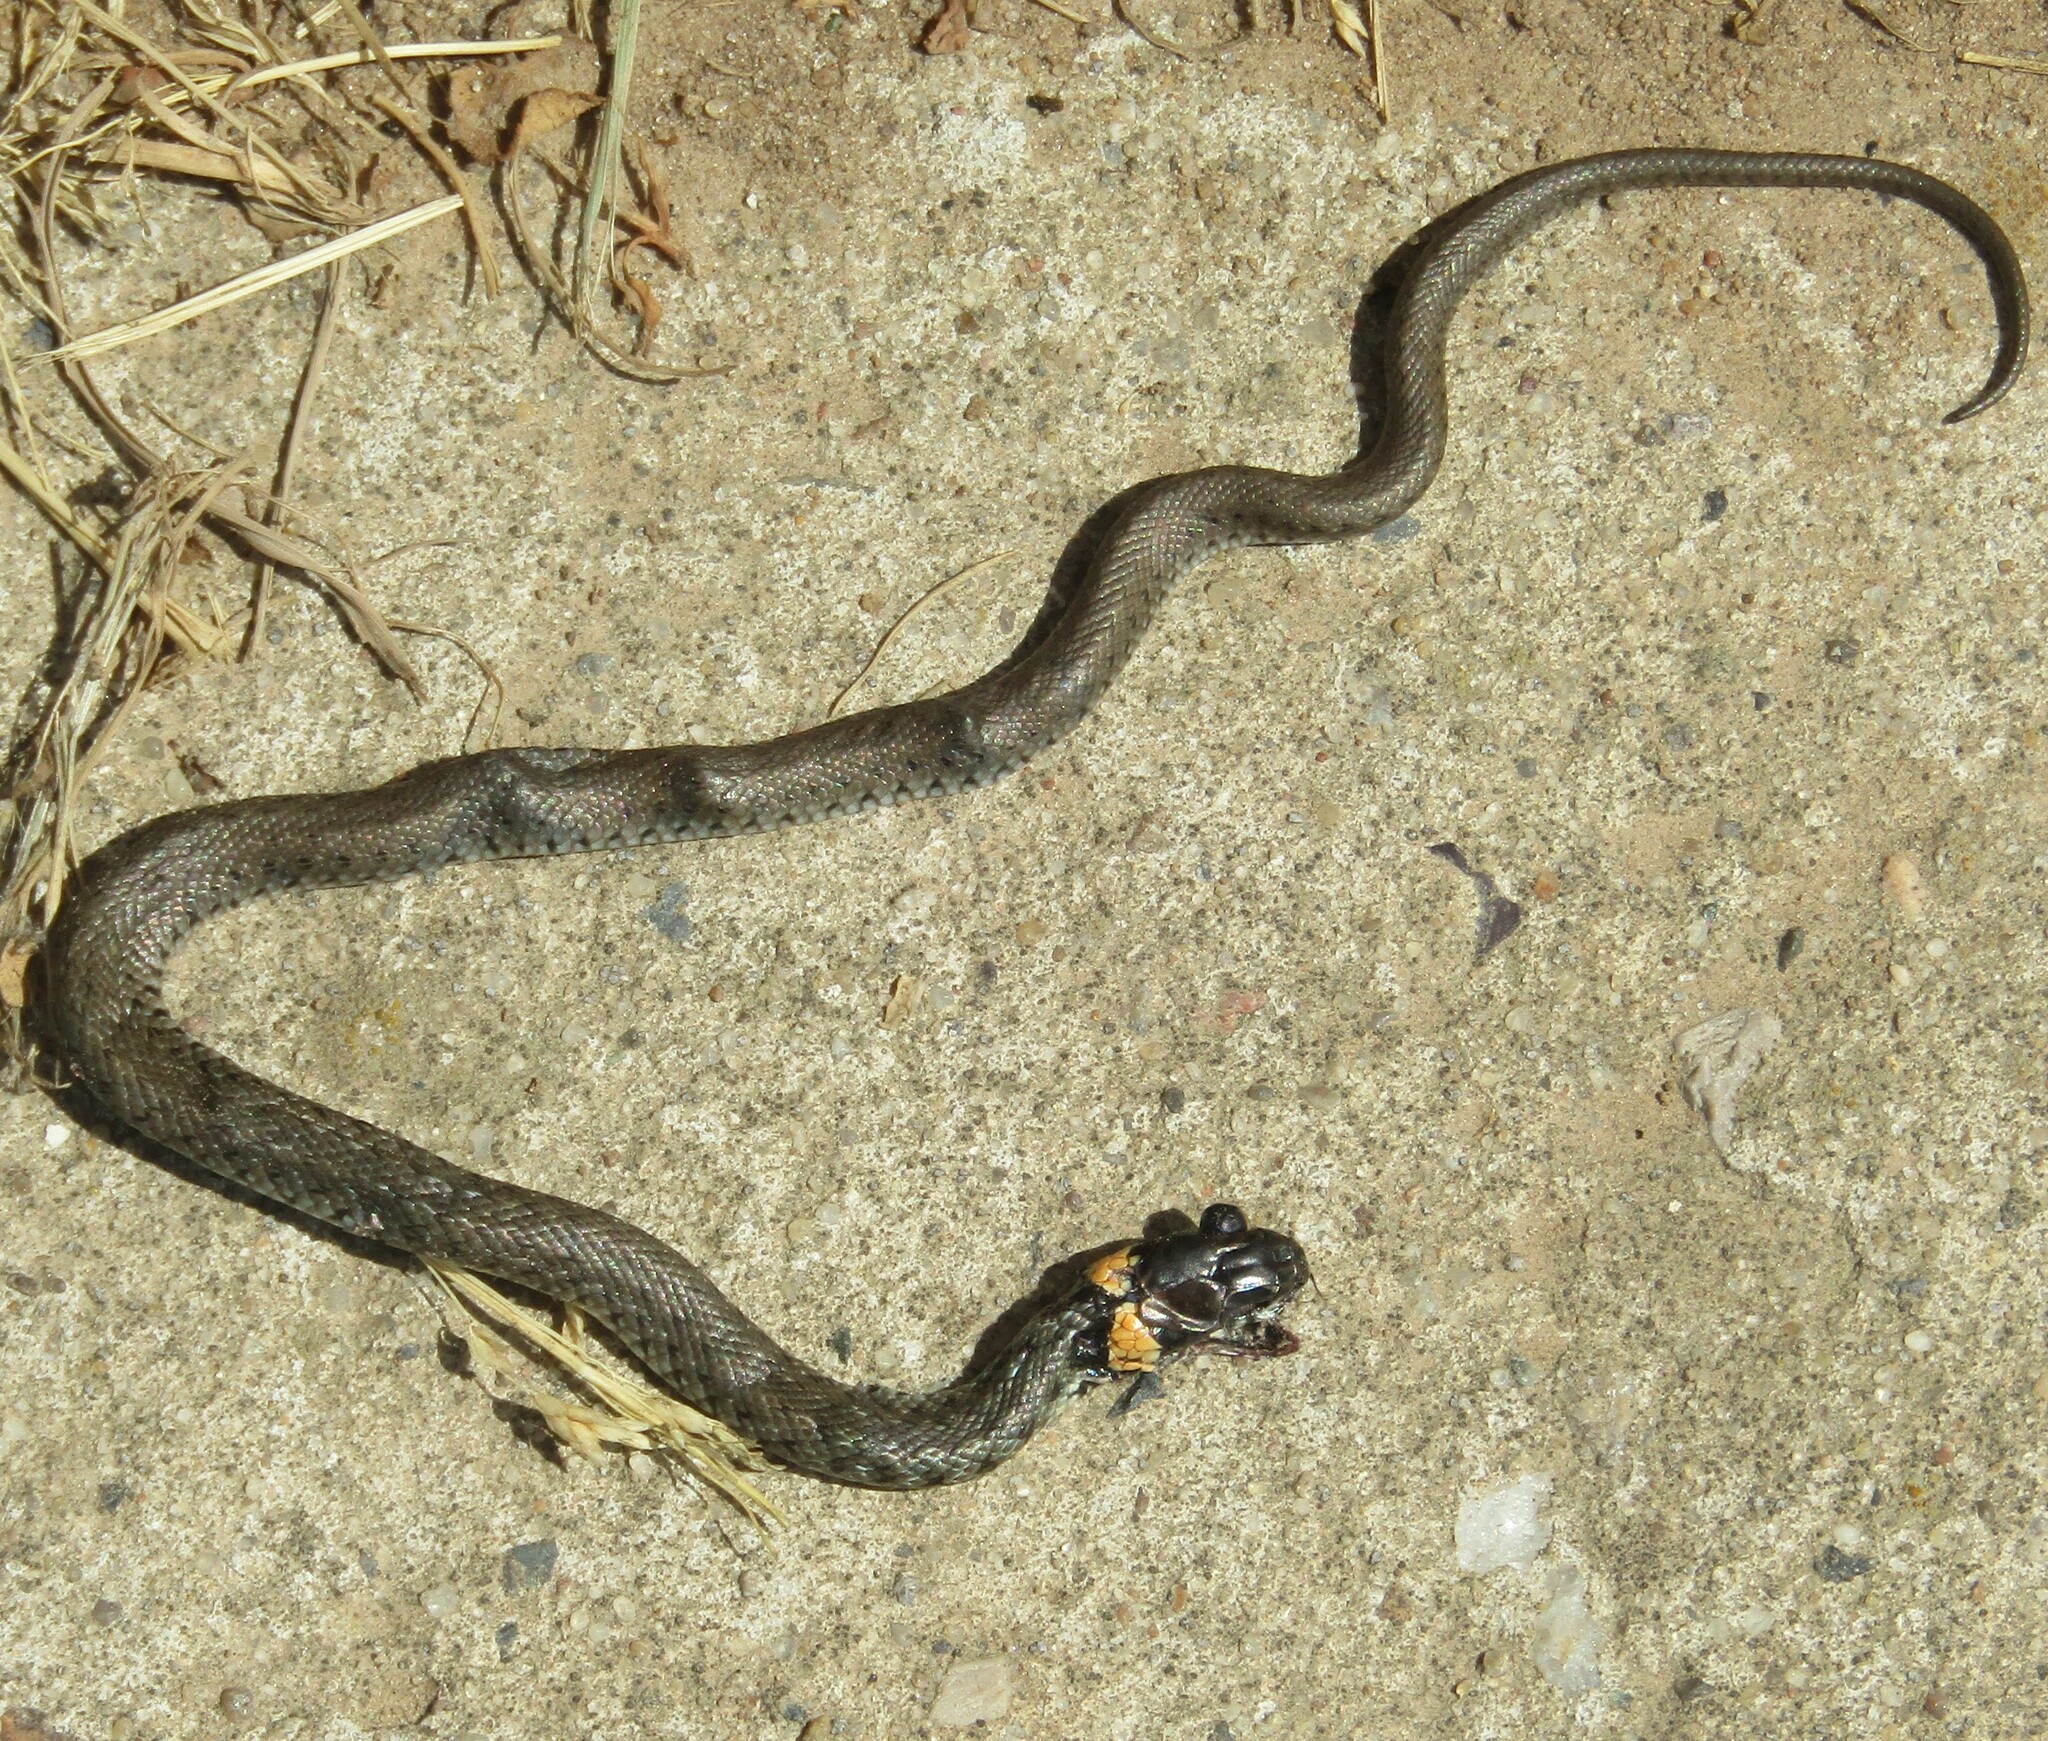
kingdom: Animalia
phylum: Chordata
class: Squamata
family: Colubridae
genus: Natrix
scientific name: Natrix natrix
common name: Grass snake
